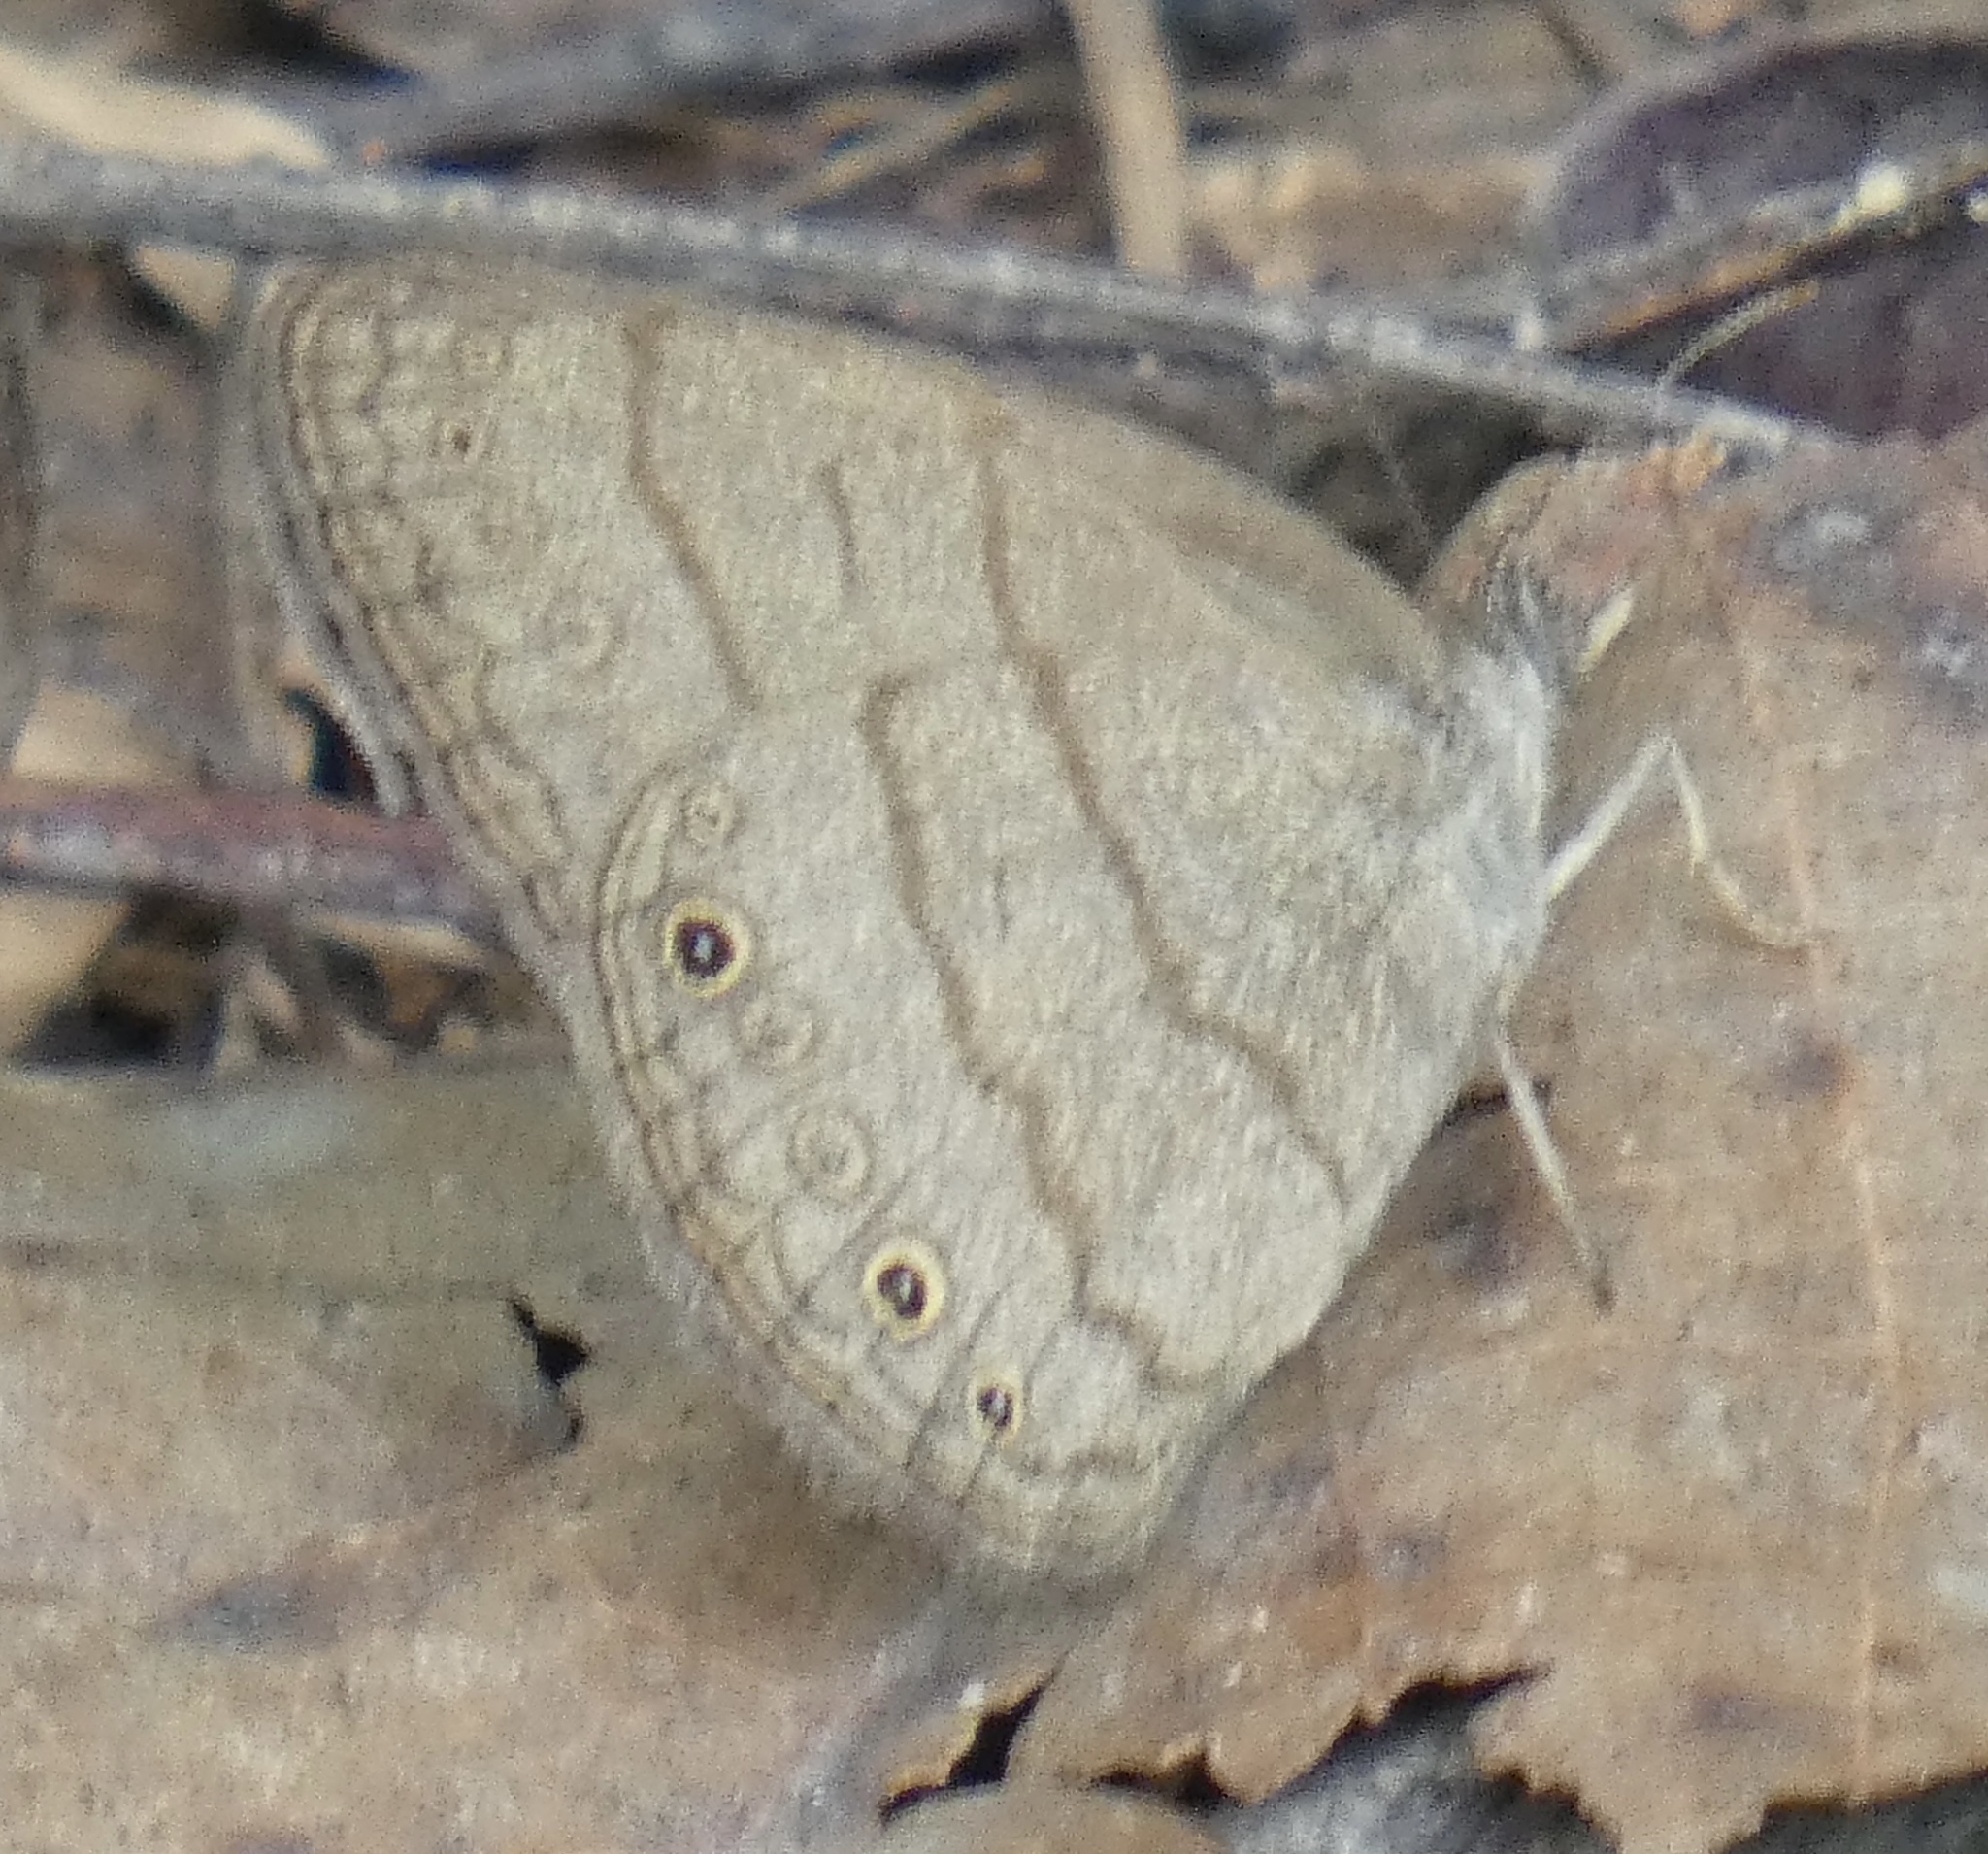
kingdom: Animalia
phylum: Arthropoda
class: Insecta
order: Lepidoptera
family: Nymphalidae
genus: Hermeuptychia
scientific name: Hermeuptychia hermes
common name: Hermes satyr
